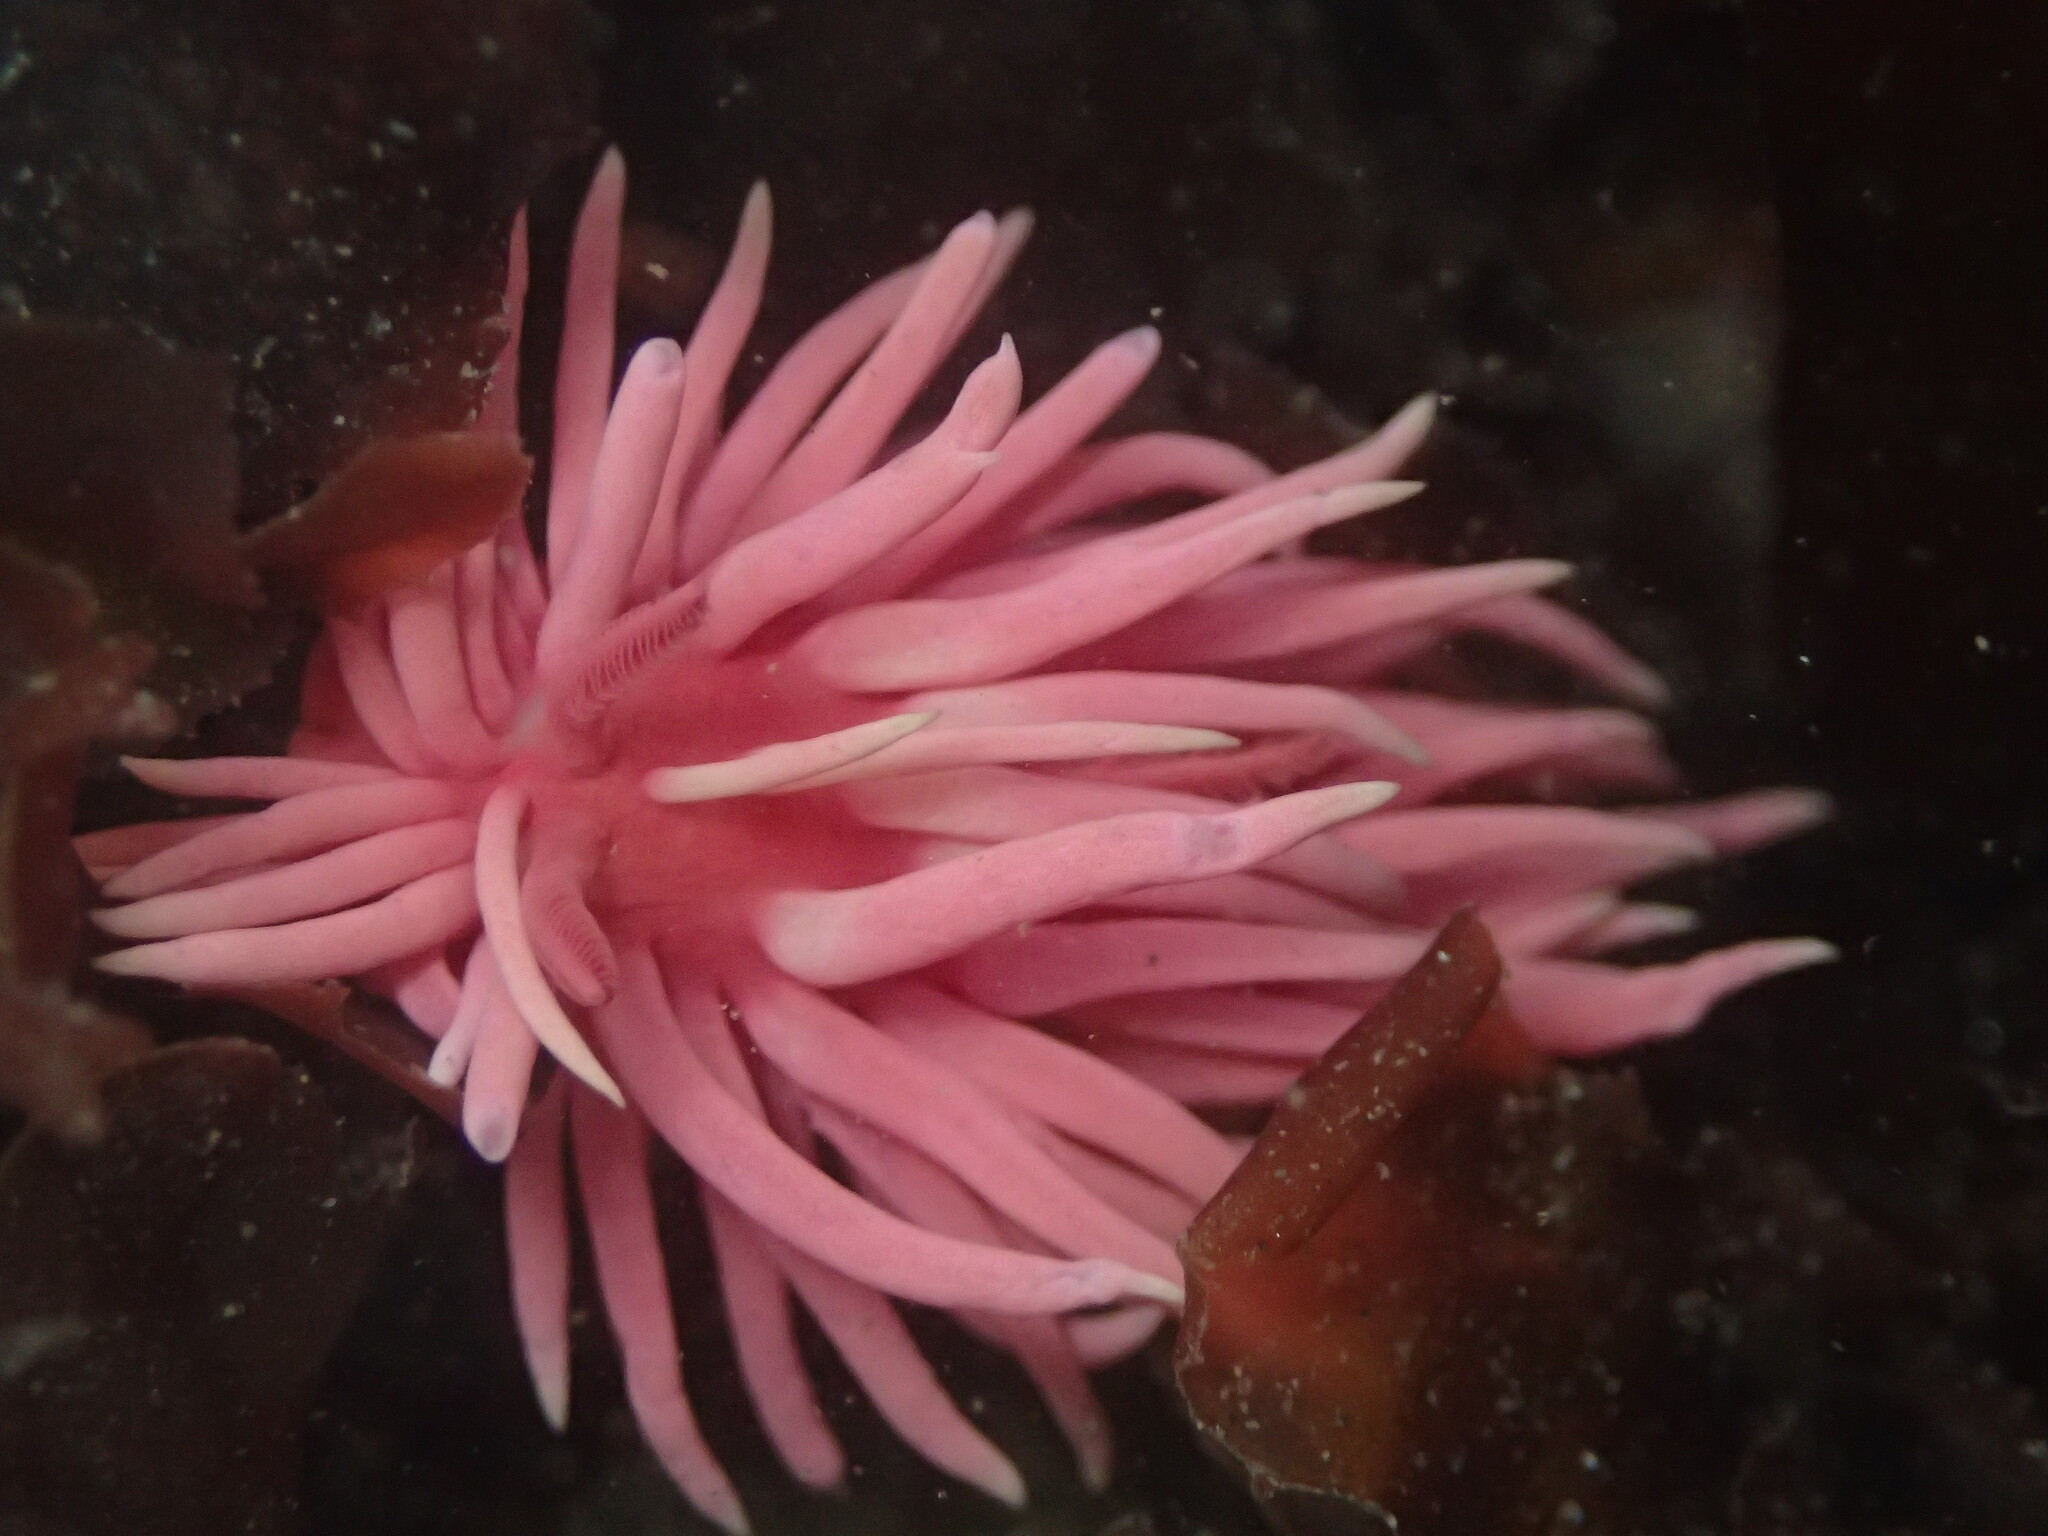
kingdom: Animalia
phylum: Mollusca
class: Gastropoda
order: Nudibranchia
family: Goniodorididae
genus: Okenia
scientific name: Okenia
